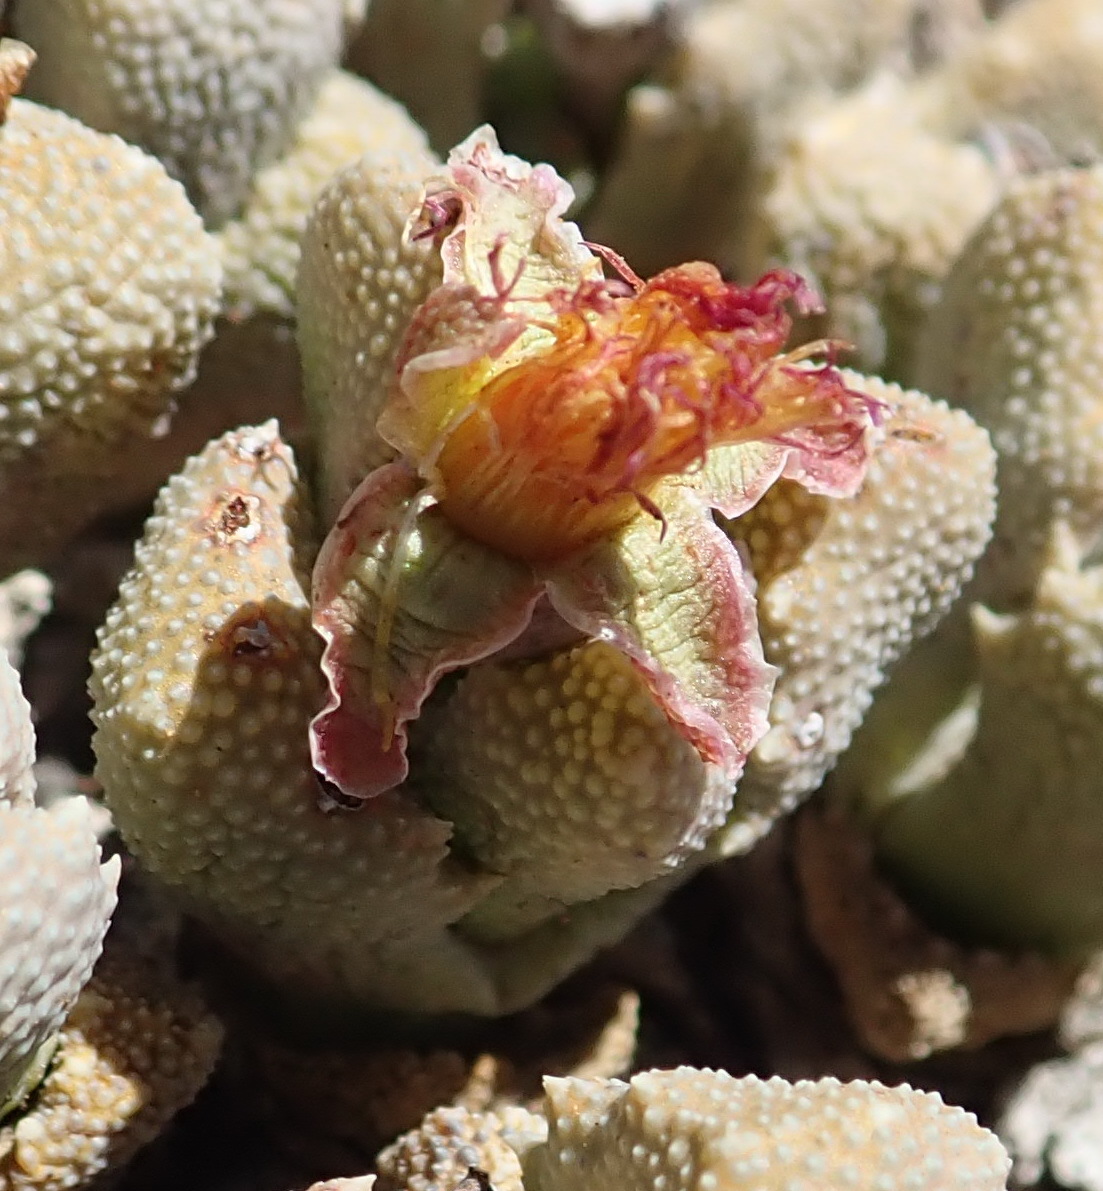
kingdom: Plantae
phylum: Tracheophyta
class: Magnoliopsida
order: Caryophyllales
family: Aizoaceae
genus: Stomatium
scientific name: Stomatium bolusiae
